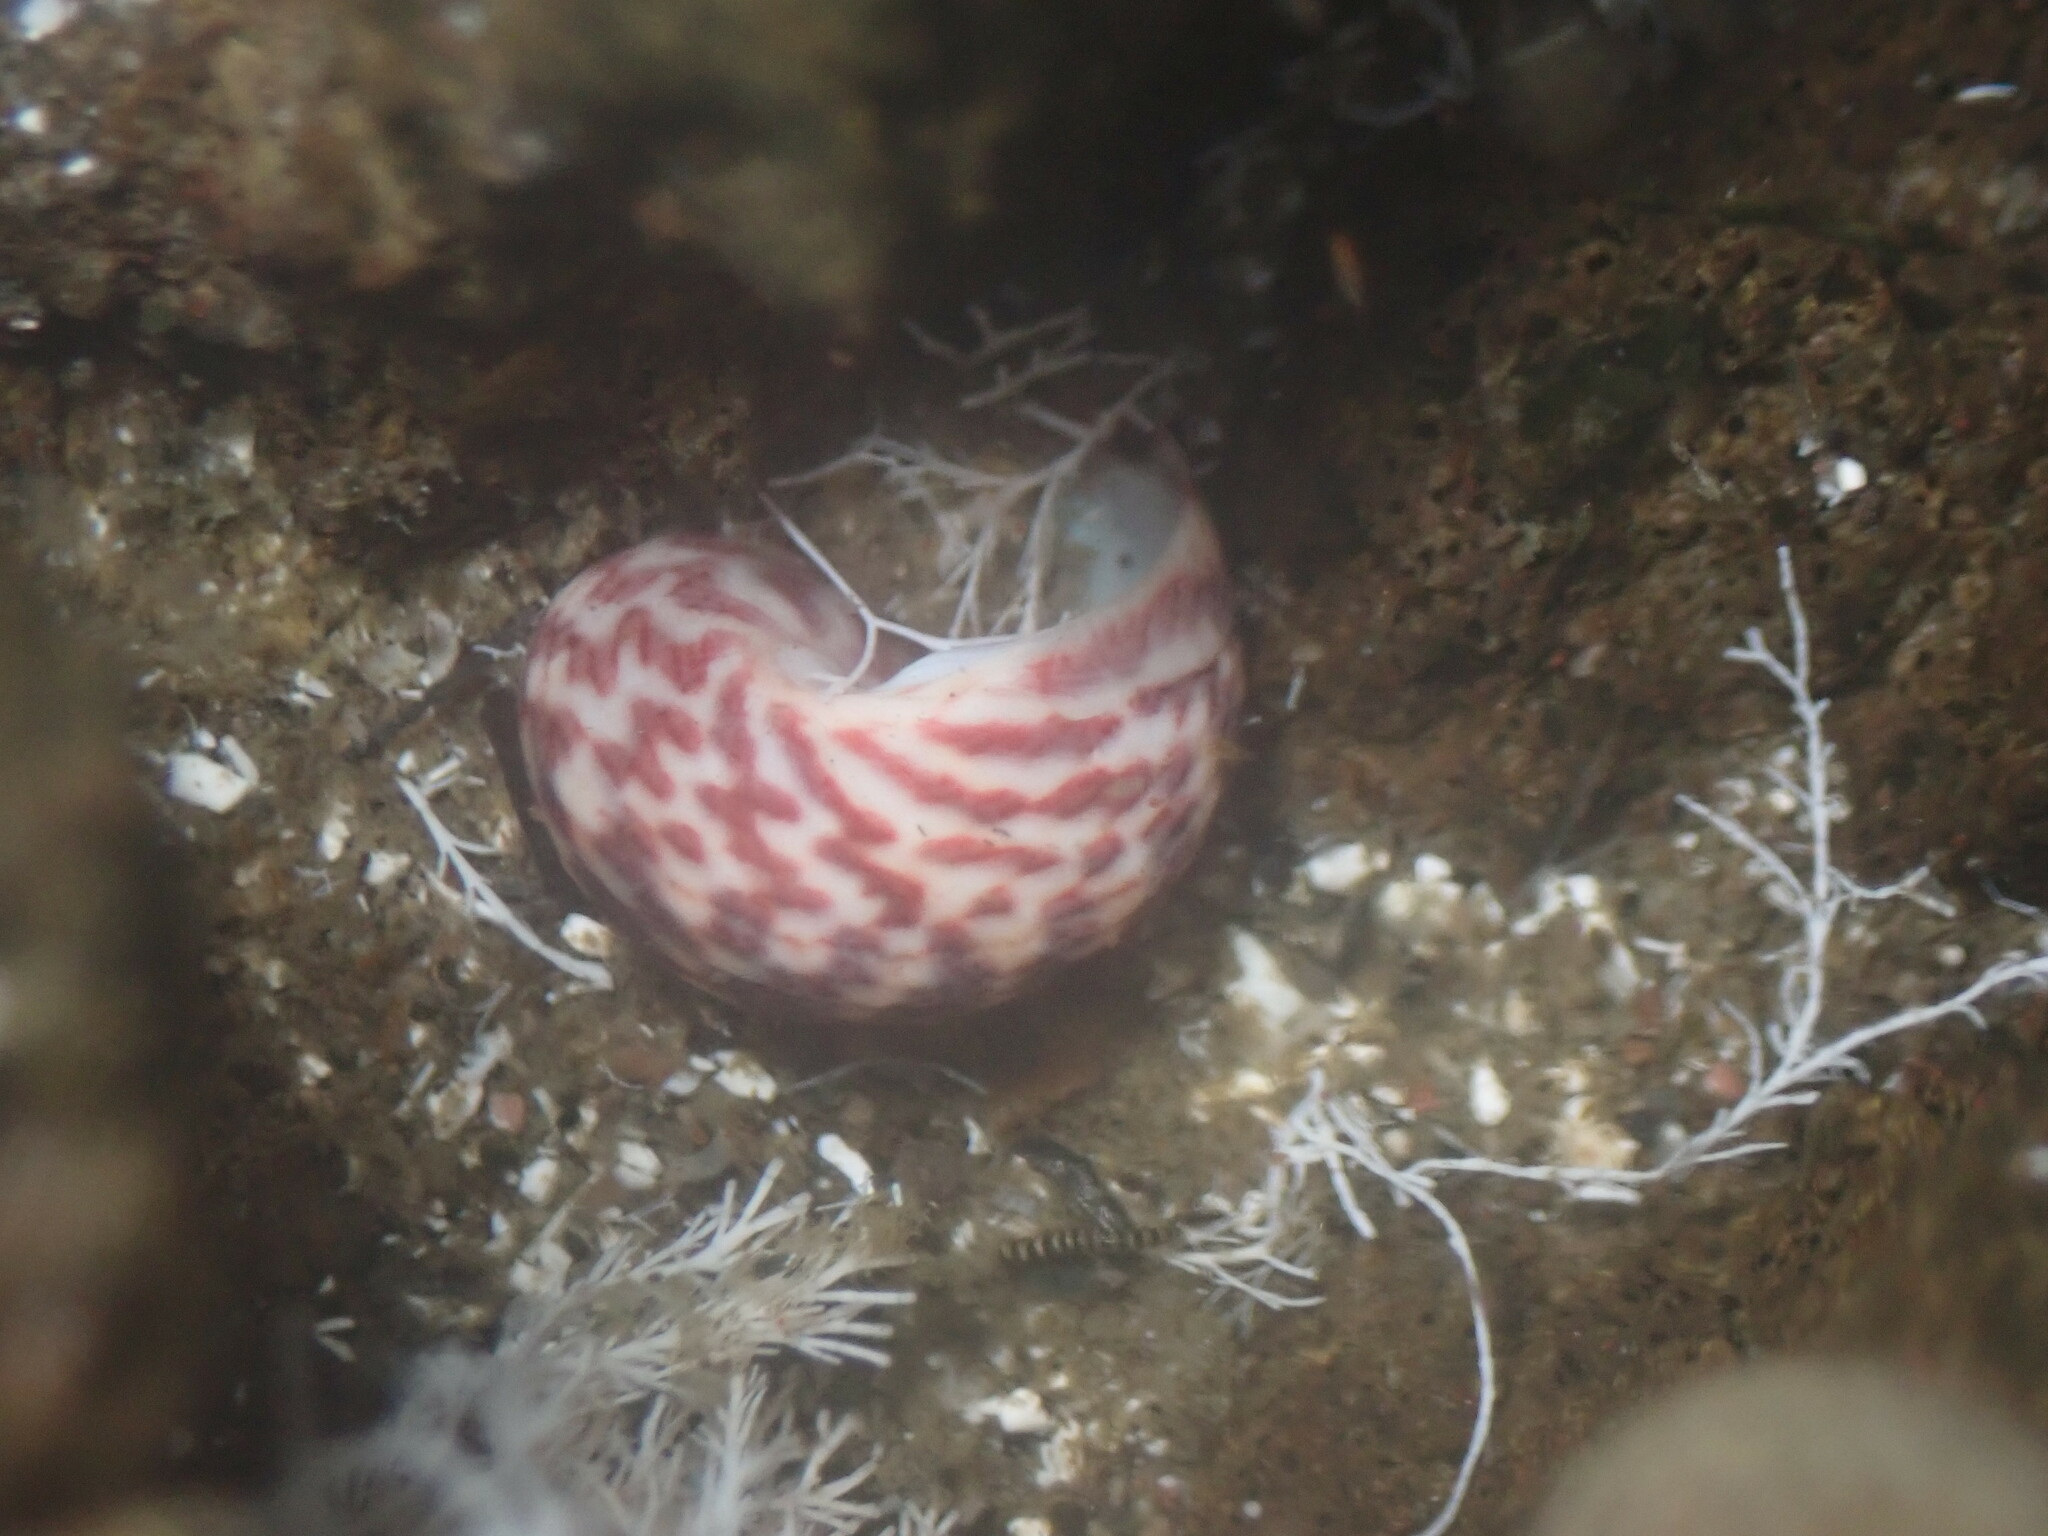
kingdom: Animalia
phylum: Mollusca
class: Gastropoda
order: Trochida
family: Trochidae
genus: Phorcus
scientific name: Phorcus sauciatus
